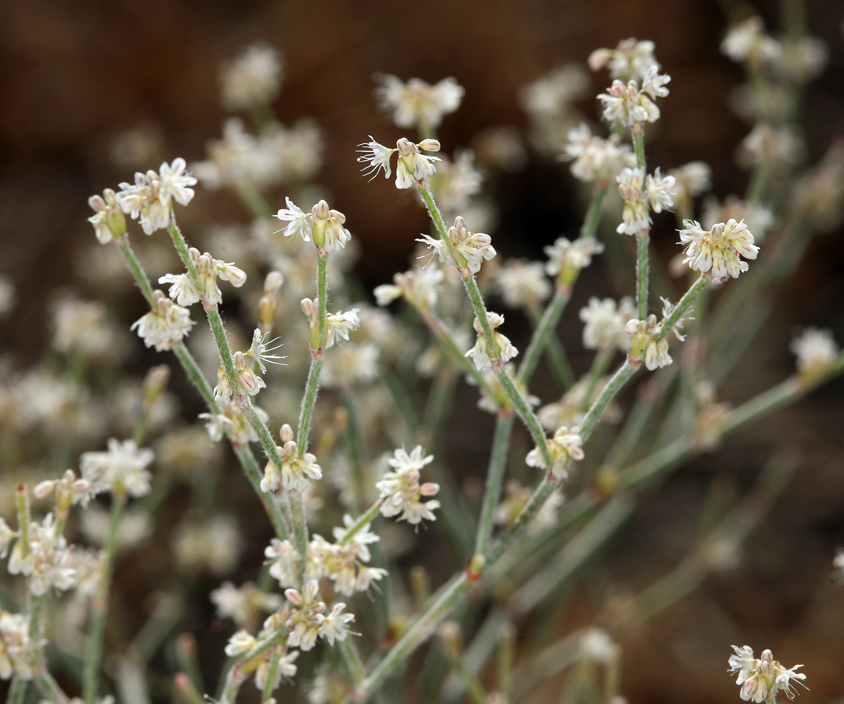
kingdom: Plantae
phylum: Tracheophyta
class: Magnoliopsida
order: Caryophyllales
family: Polygonaceae
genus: Eriogonum
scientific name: Eriogonum baileyi
